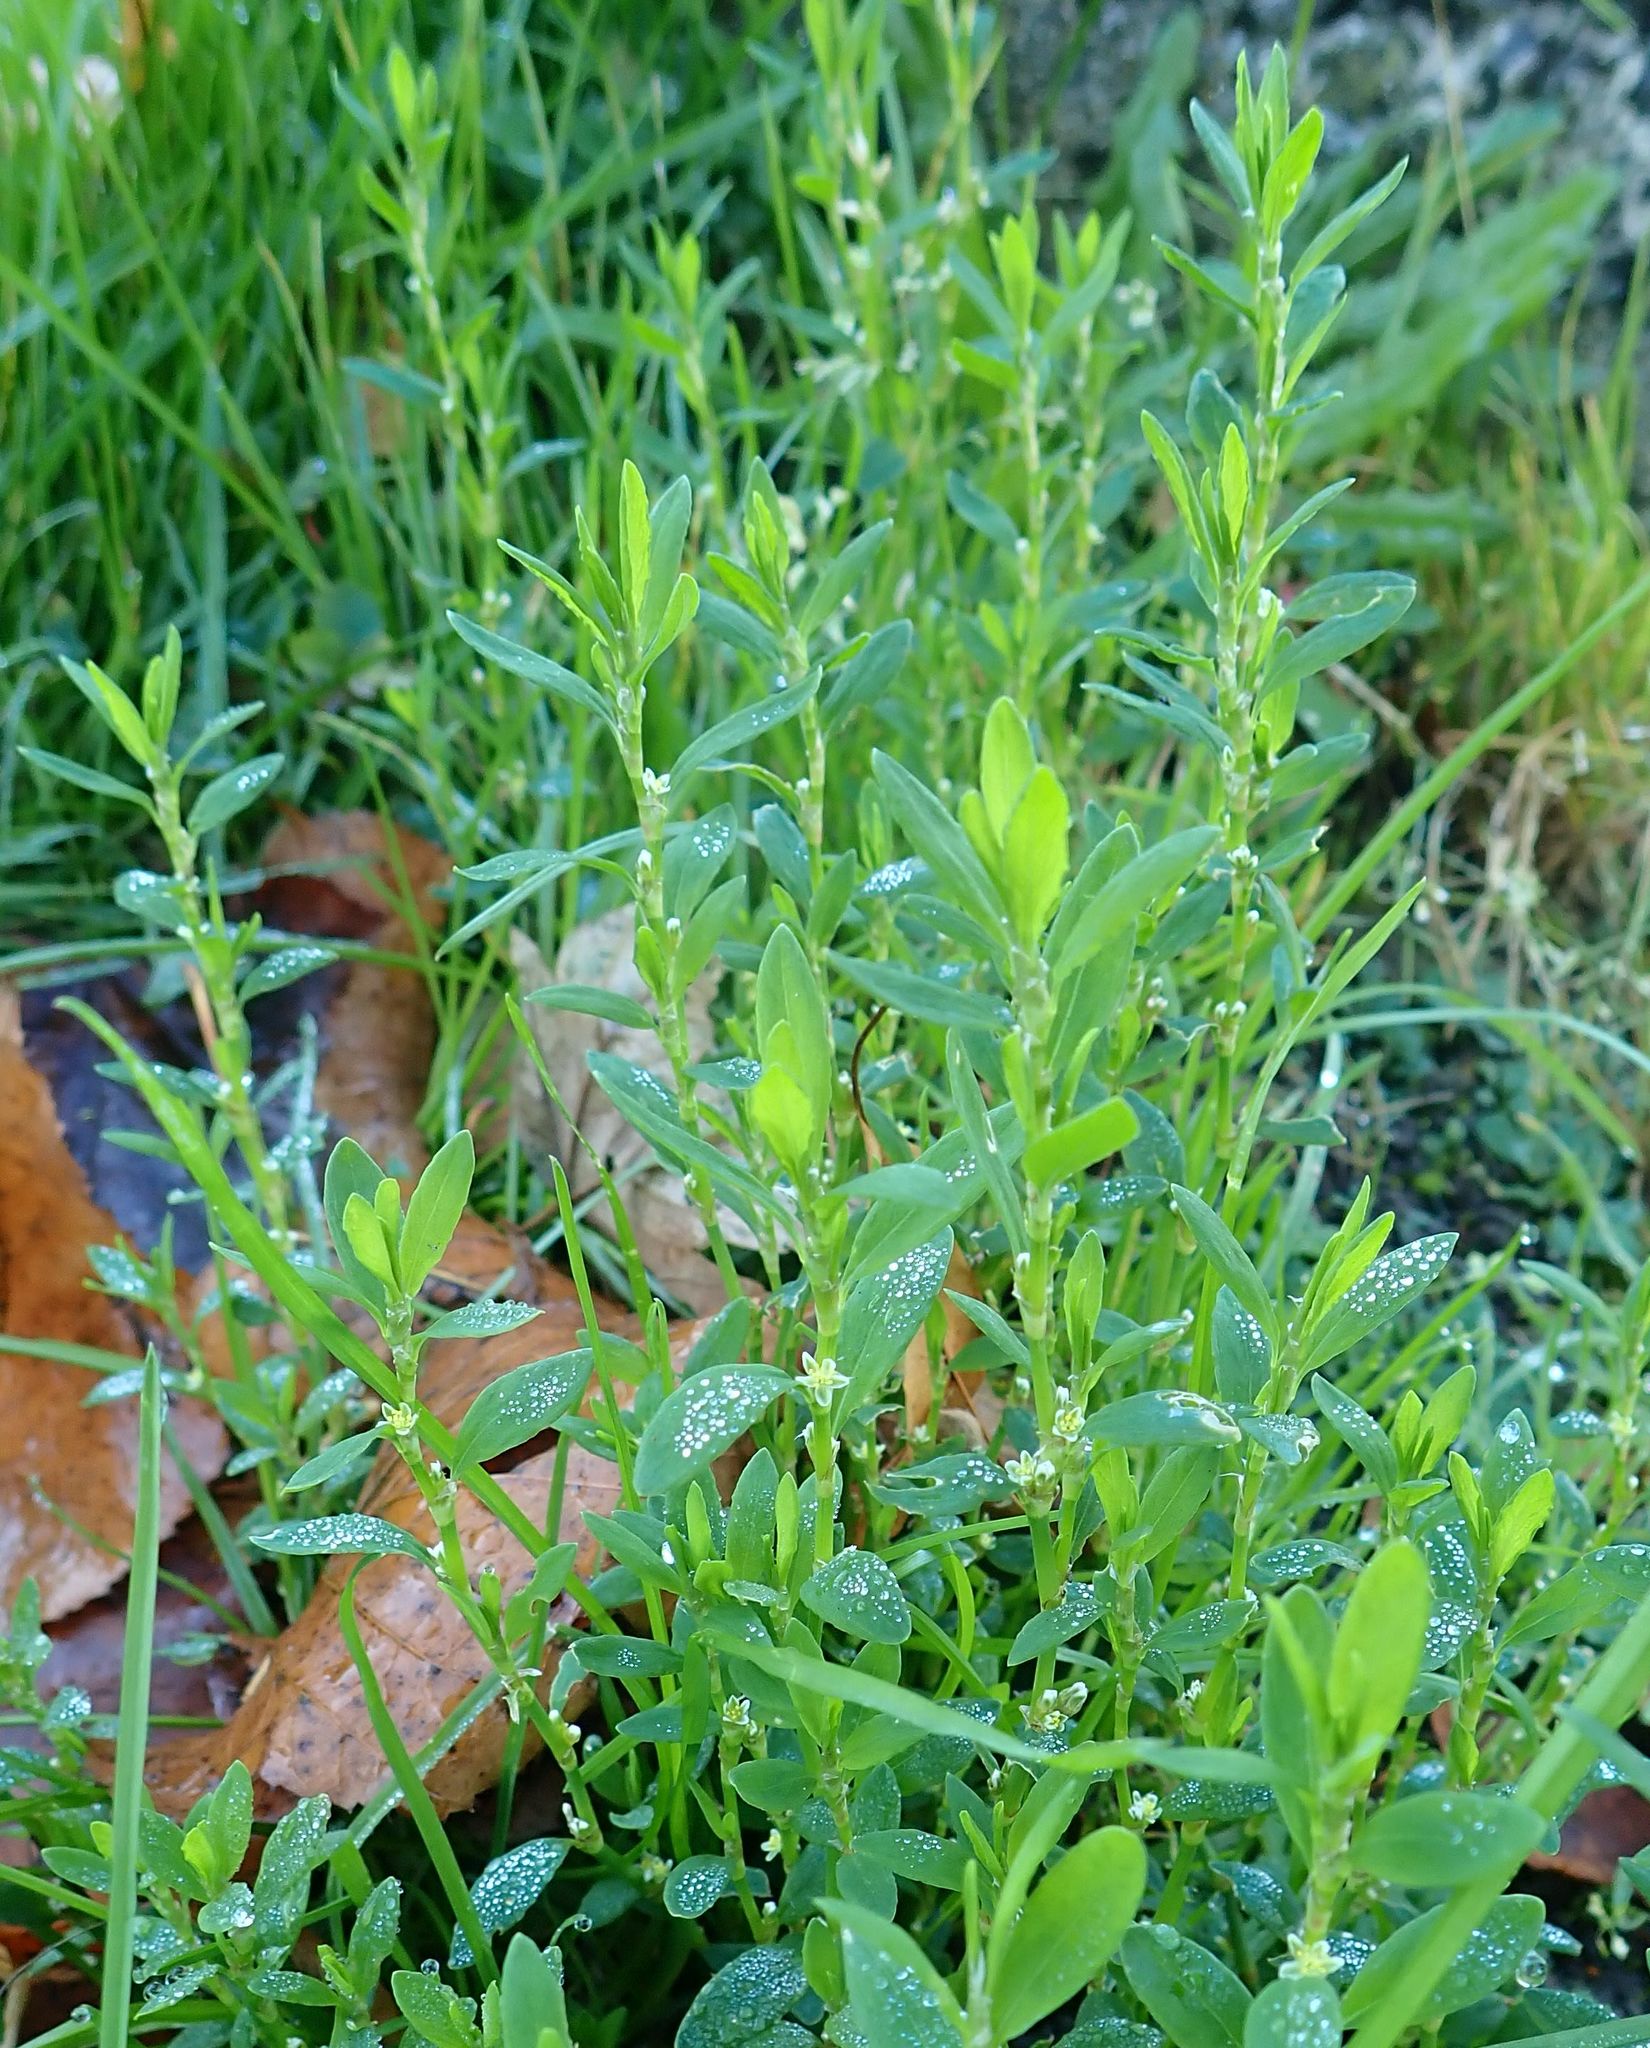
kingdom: Plantae
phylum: Tracheophyta
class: Magnoliopsida
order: Caryophyllales
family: Polygonaceae
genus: Polygonum
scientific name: Polygonum aviculare
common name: Prostrate knotweed
